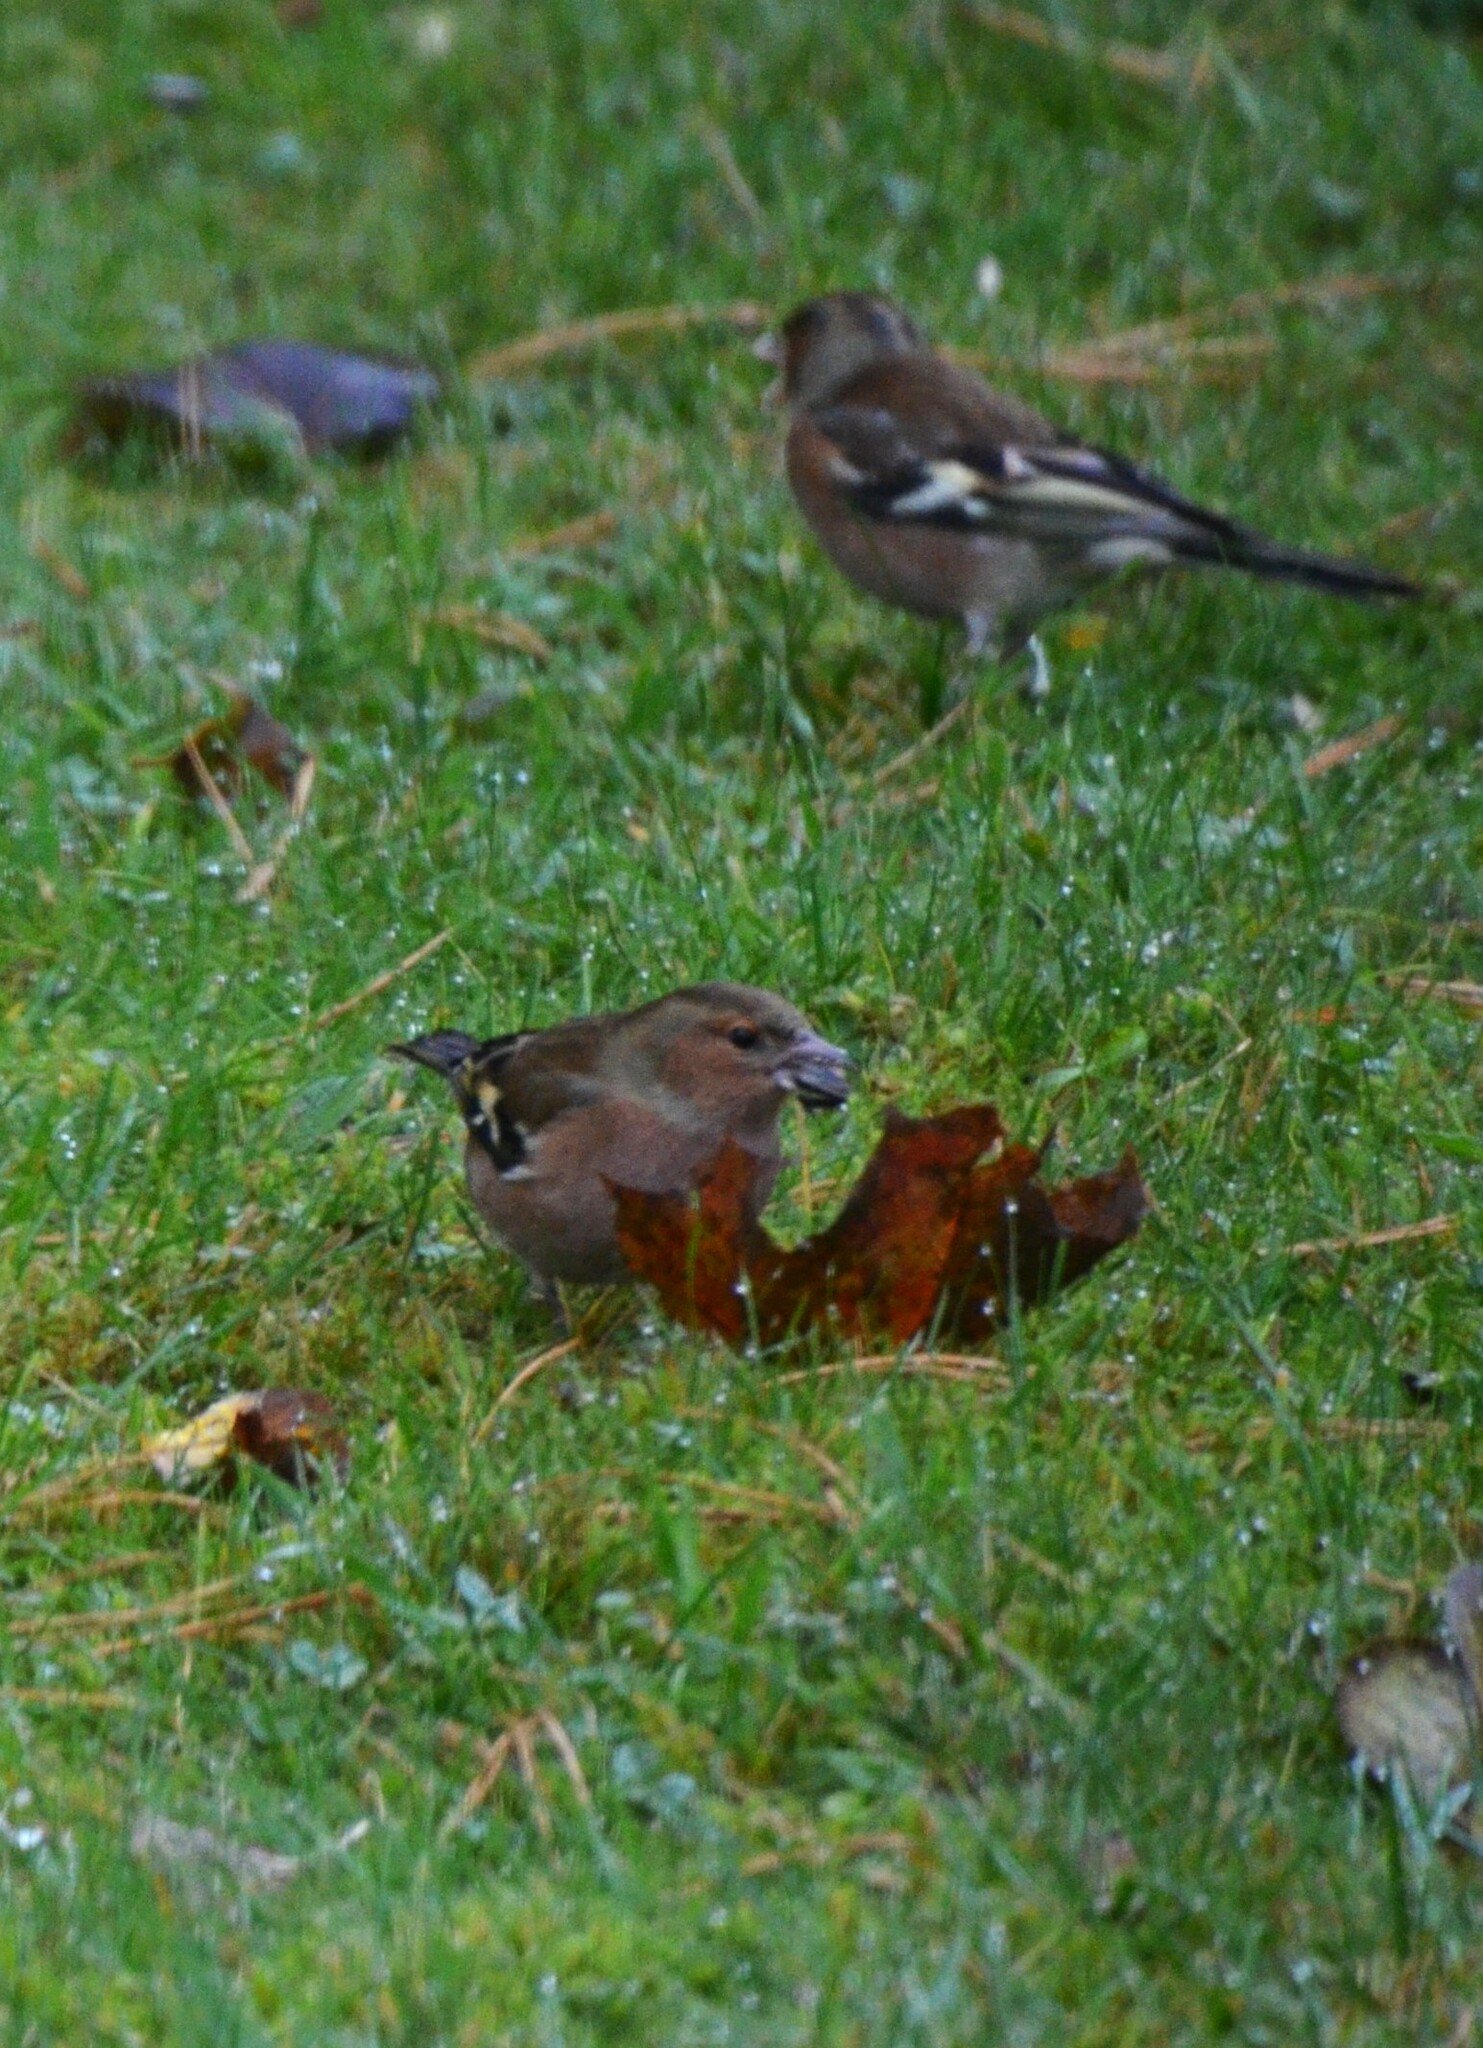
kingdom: Animalia
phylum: Chordata
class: Aves
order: Passeriformes
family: Fringillidae
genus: Fringilla
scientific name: Fringilla coelebs
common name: Common chaffinch
